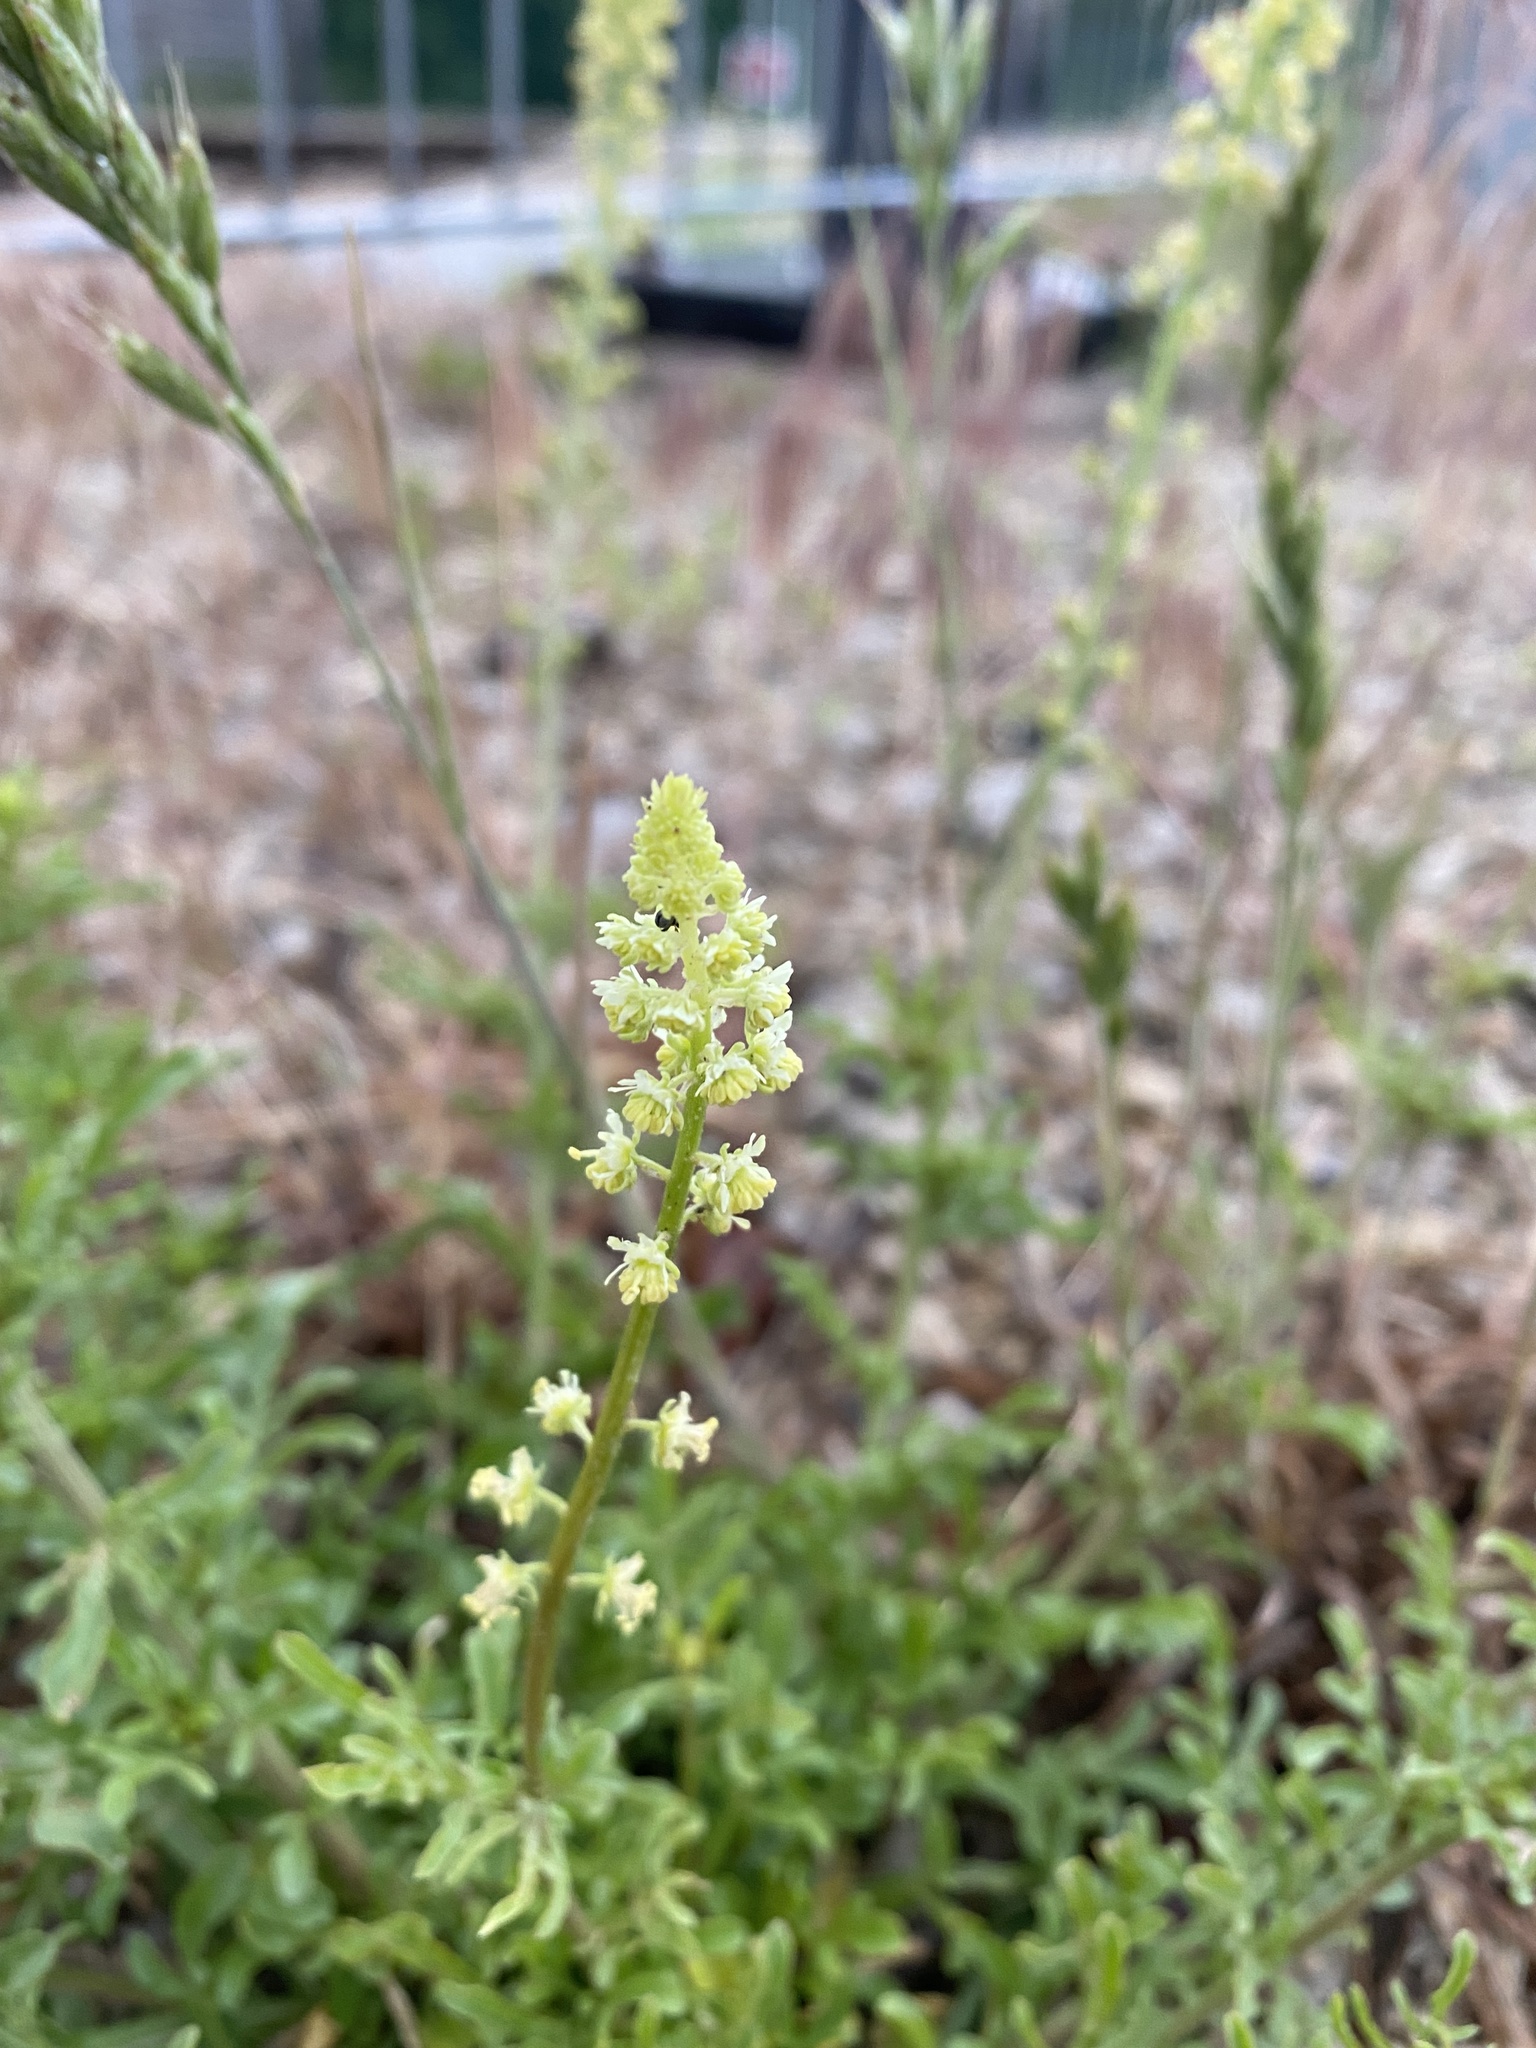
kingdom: Plantae
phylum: Tracheophyta
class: Magnoliopsida
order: Brassicales
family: Resedaceae
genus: Reseda
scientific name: Reseda lutea
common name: Wild mignonette
